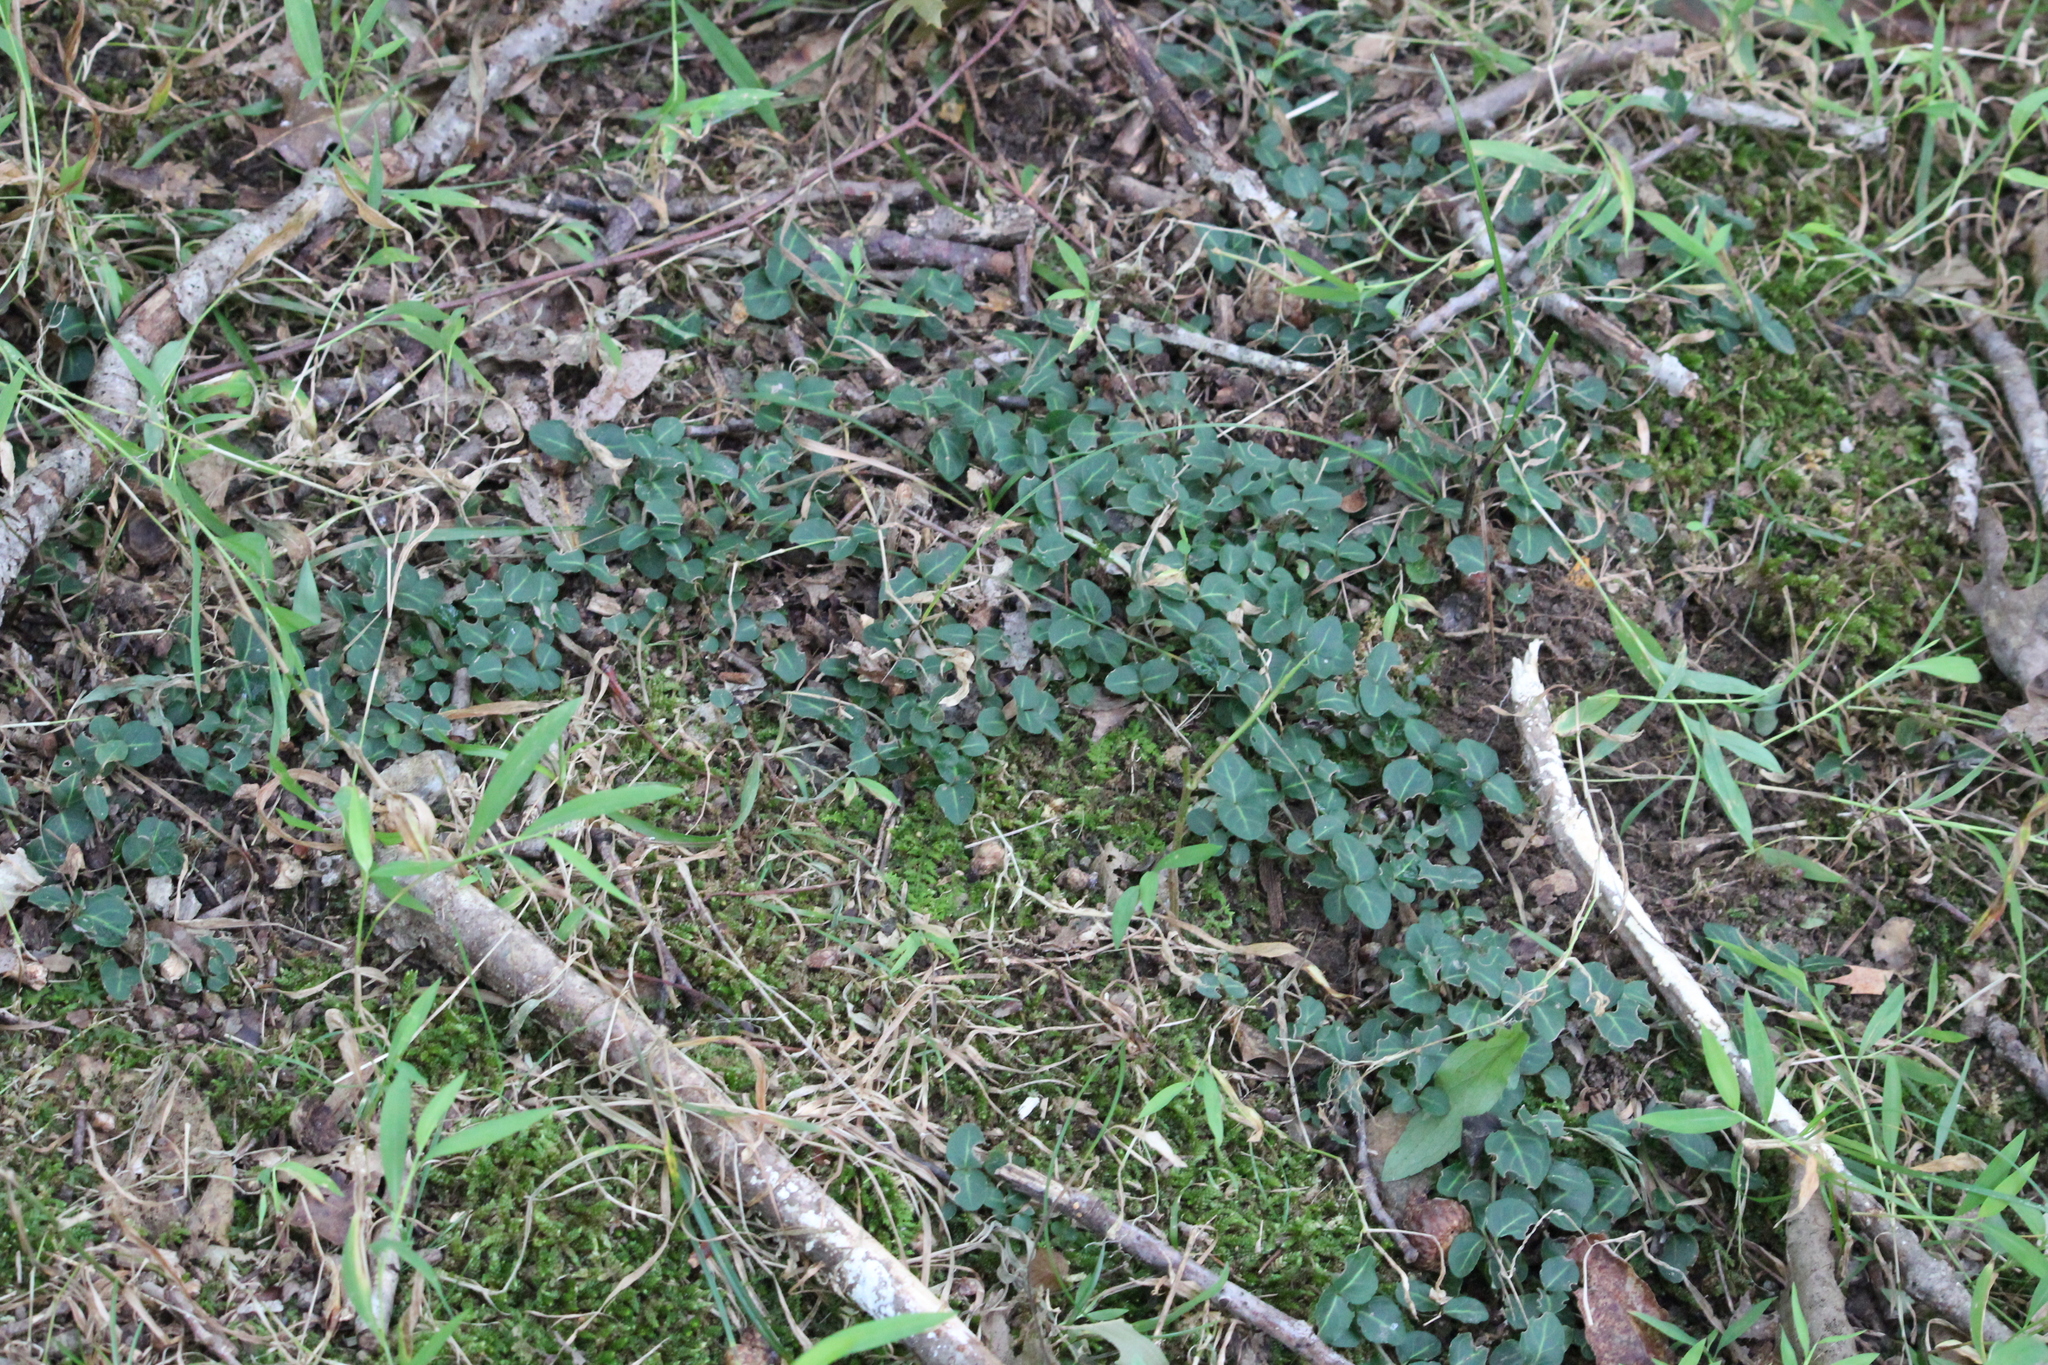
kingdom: Plantae
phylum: Tracheophyta
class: Magnoliopsida
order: Gentianales
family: Rubiaceae
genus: Mitchella
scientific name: Mitchella repens
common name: Partridge-berry
